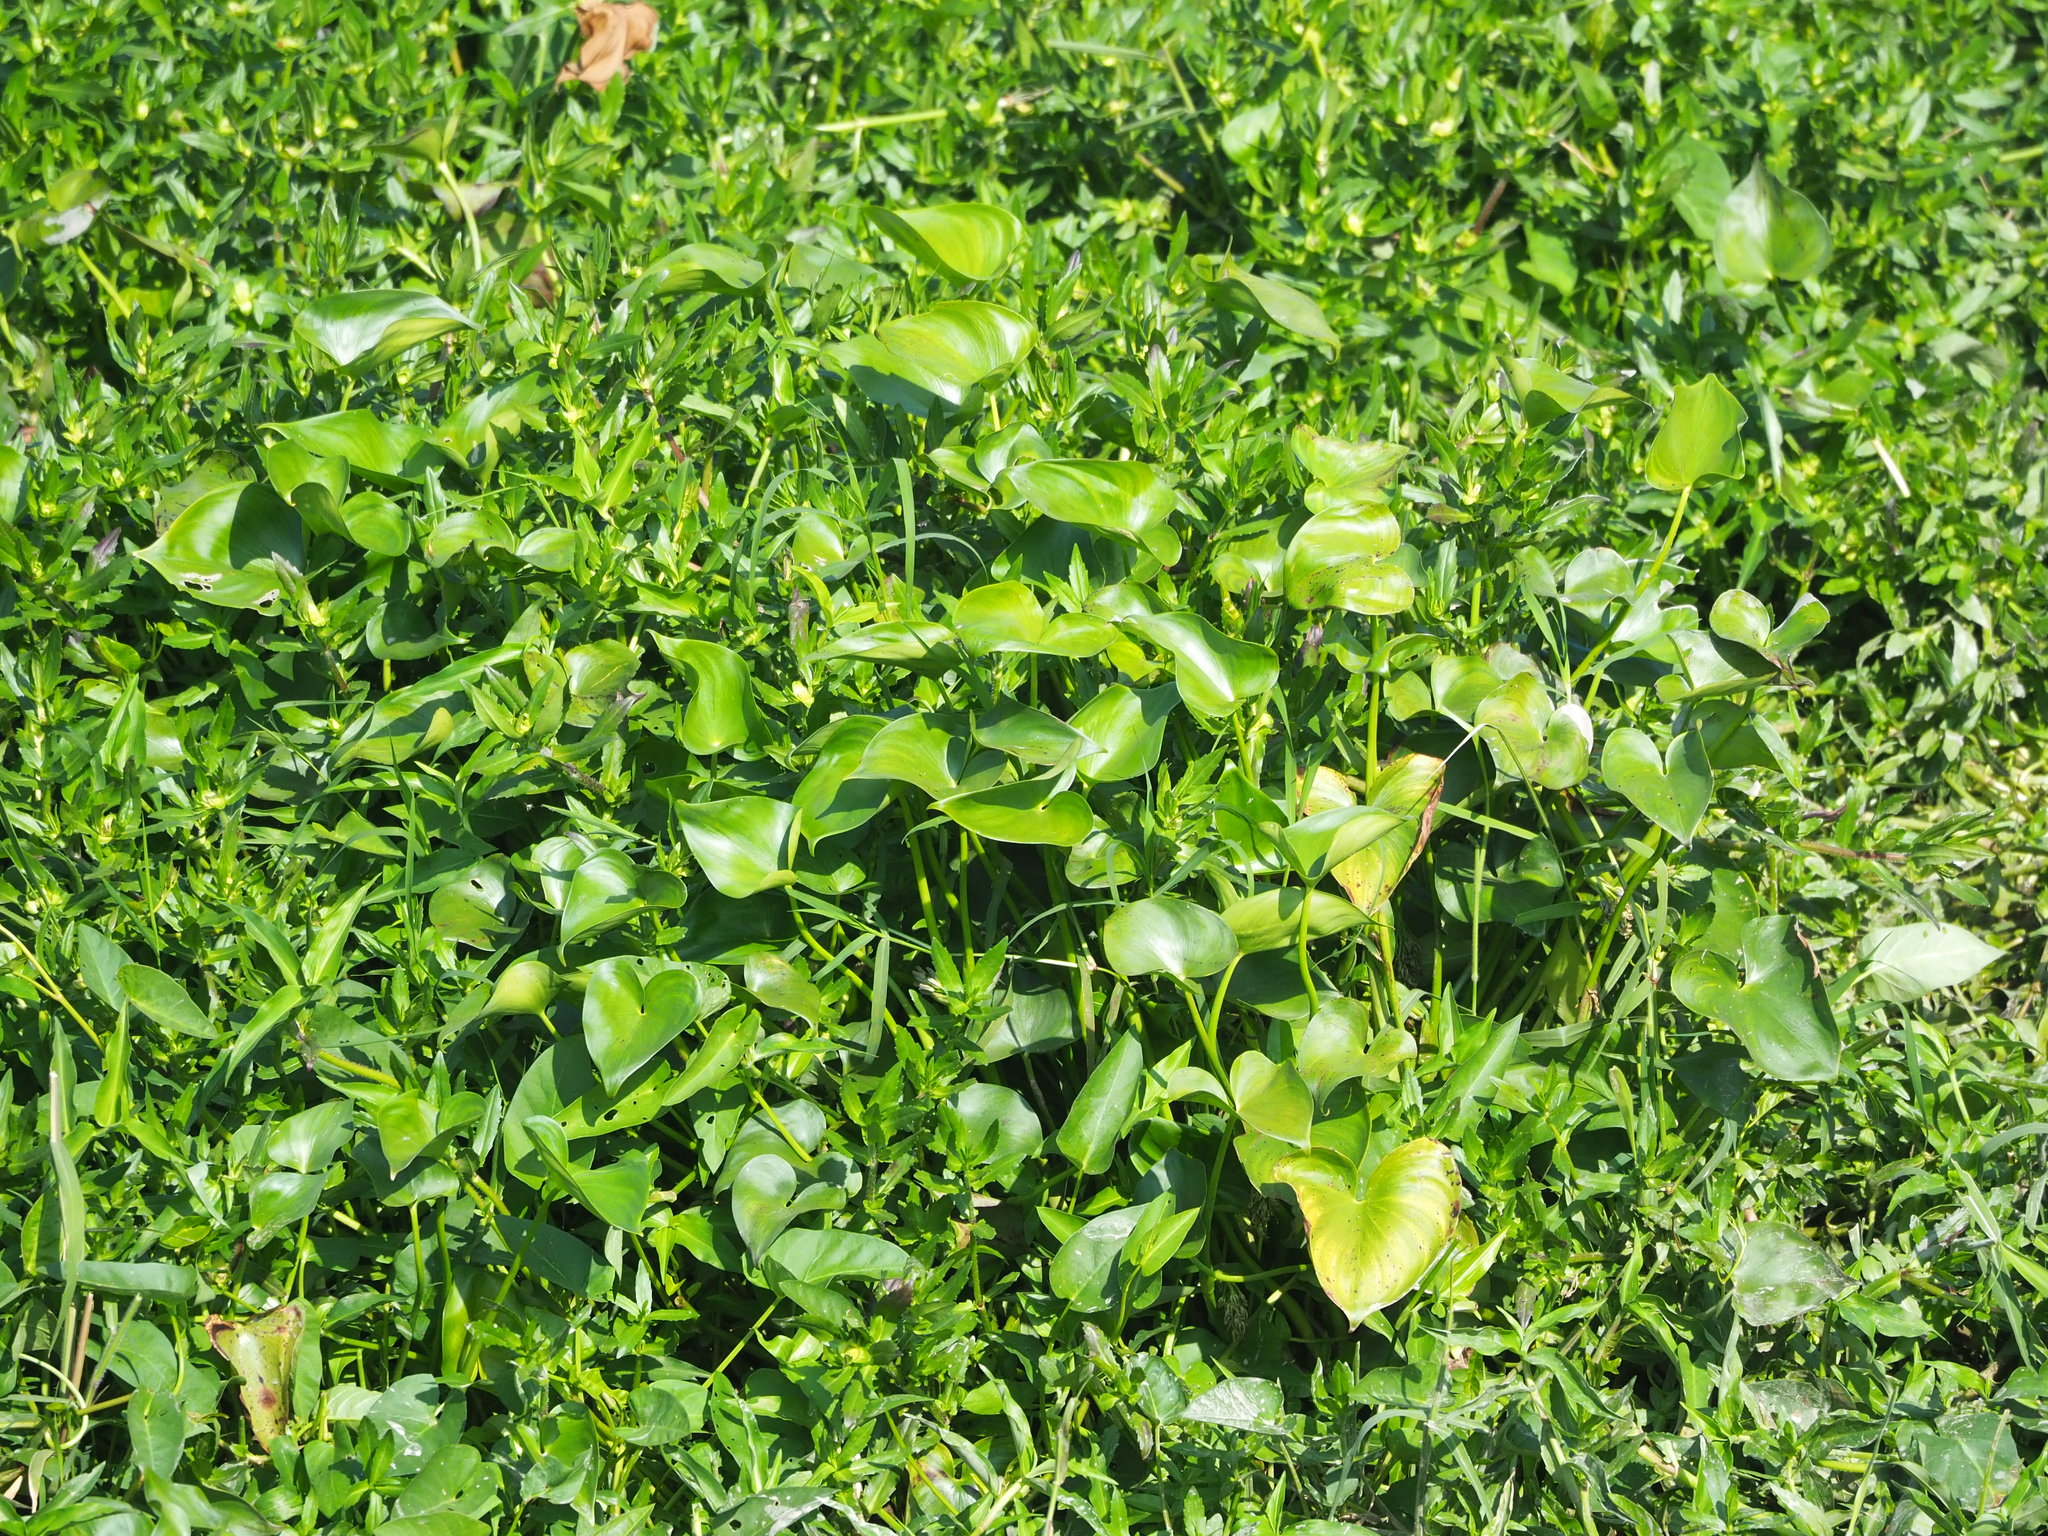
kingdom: Plantae
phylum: Tracheophyta
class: Liliopsida
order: Commelinales
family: Pontederiaceae
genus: Pontederia
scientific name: Pontederia vaginalis
